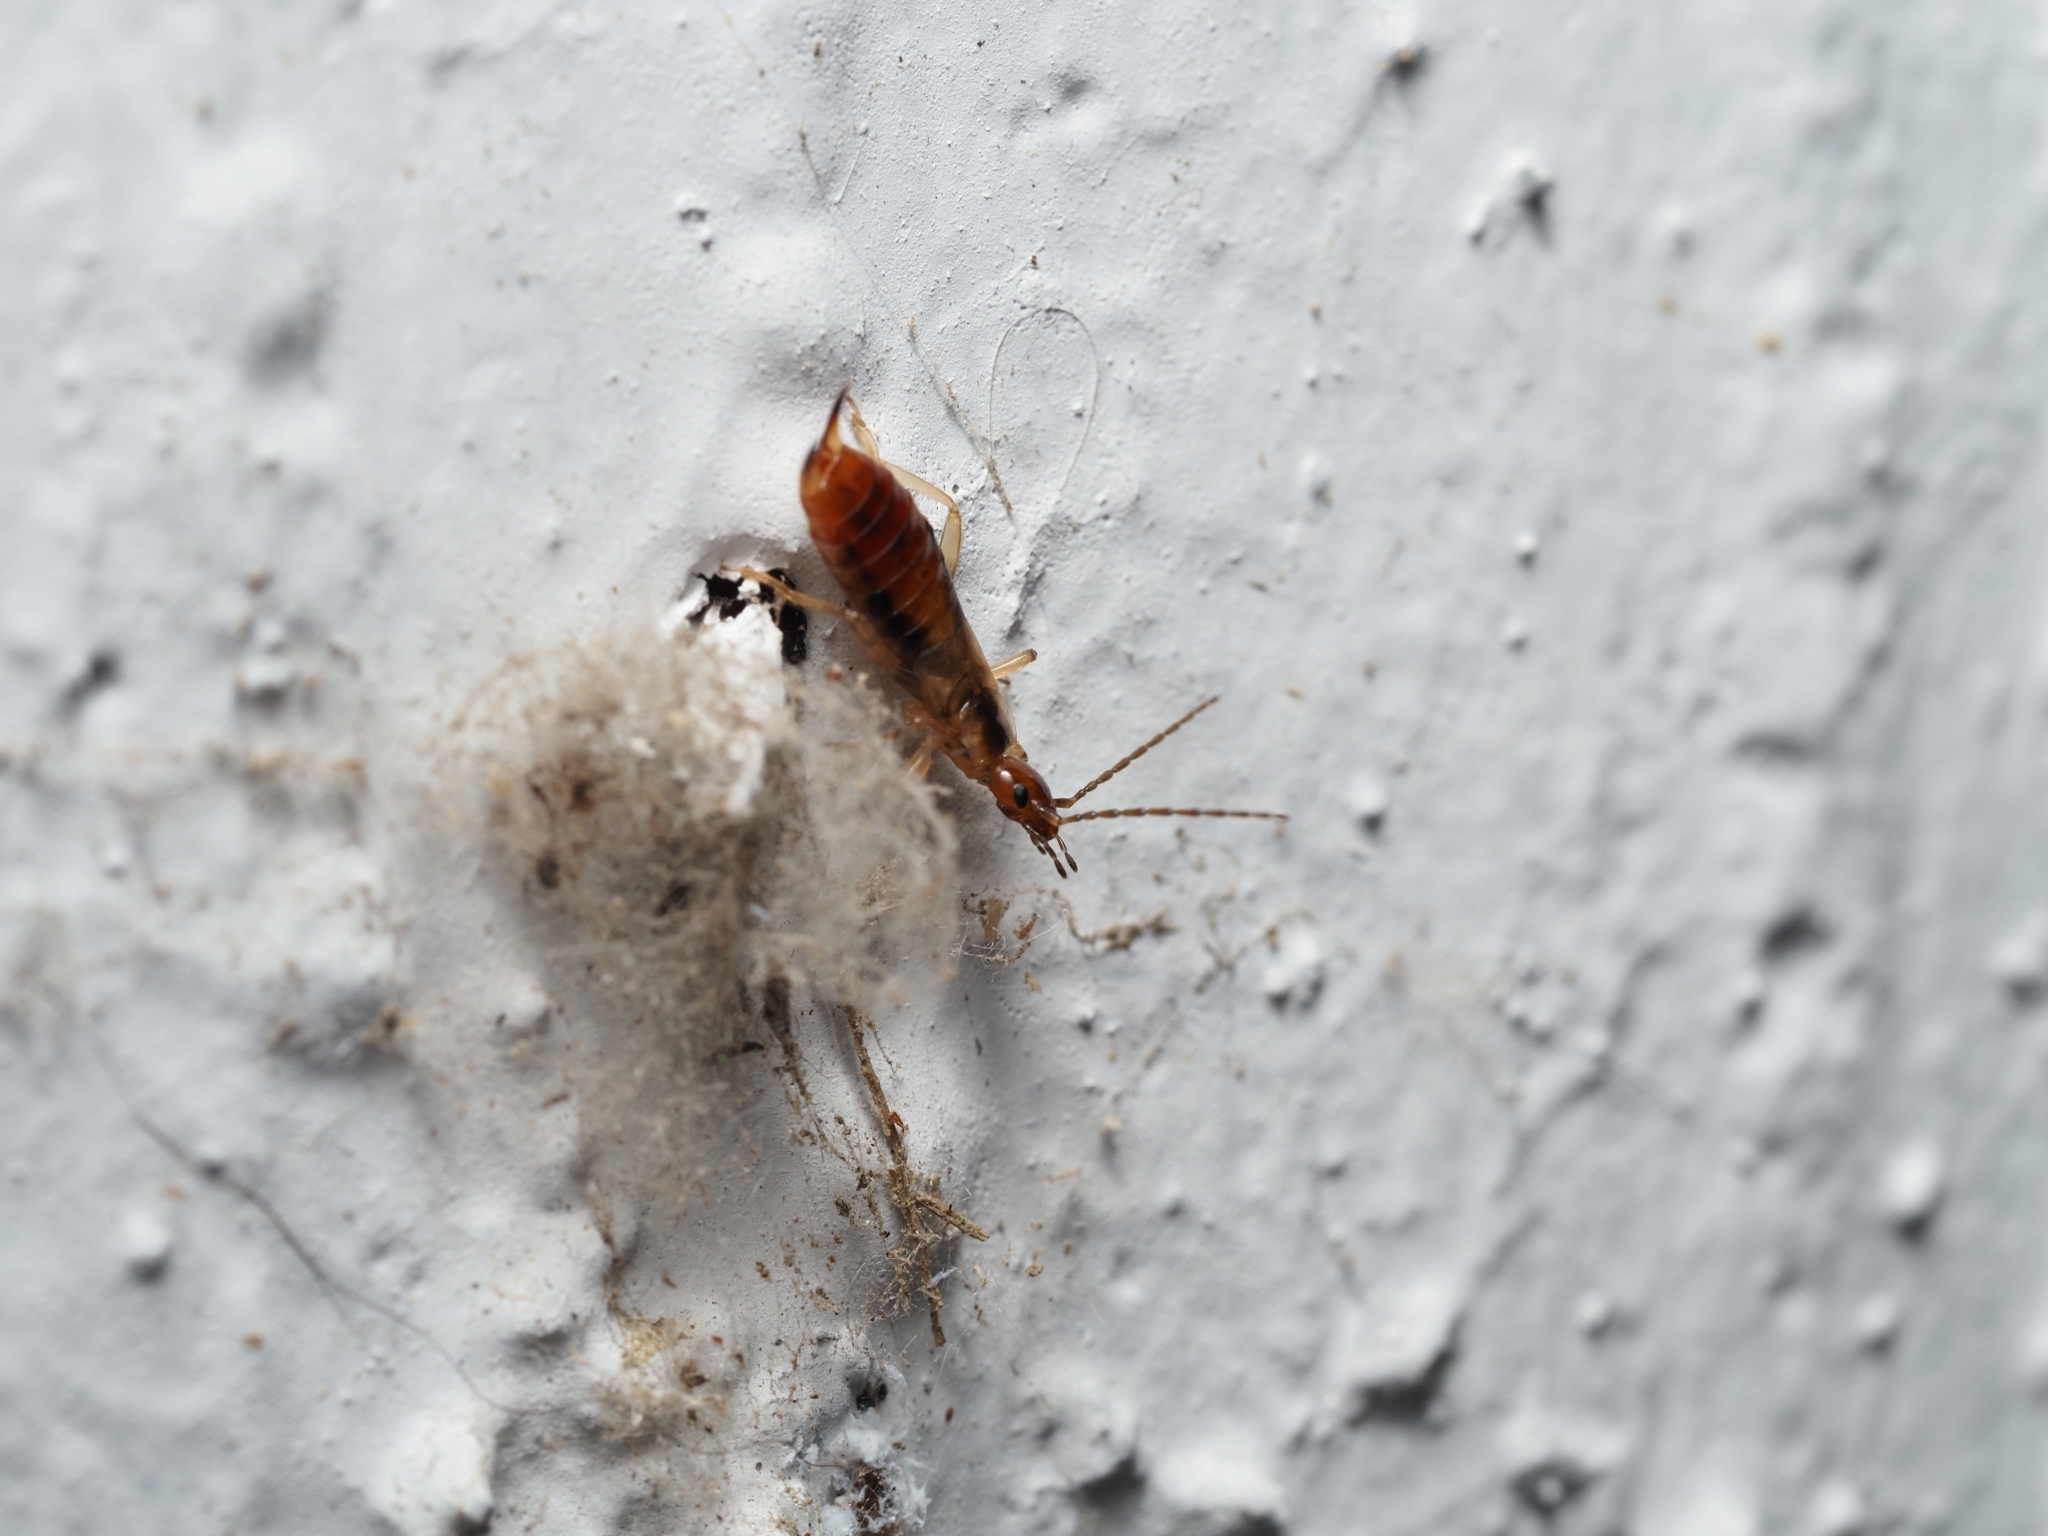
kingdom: Animalia
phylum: Arthropoda
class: Insecta
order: Dermaptera
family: Forficulidae
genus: Apterygida
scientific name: Apterygida albipennis
